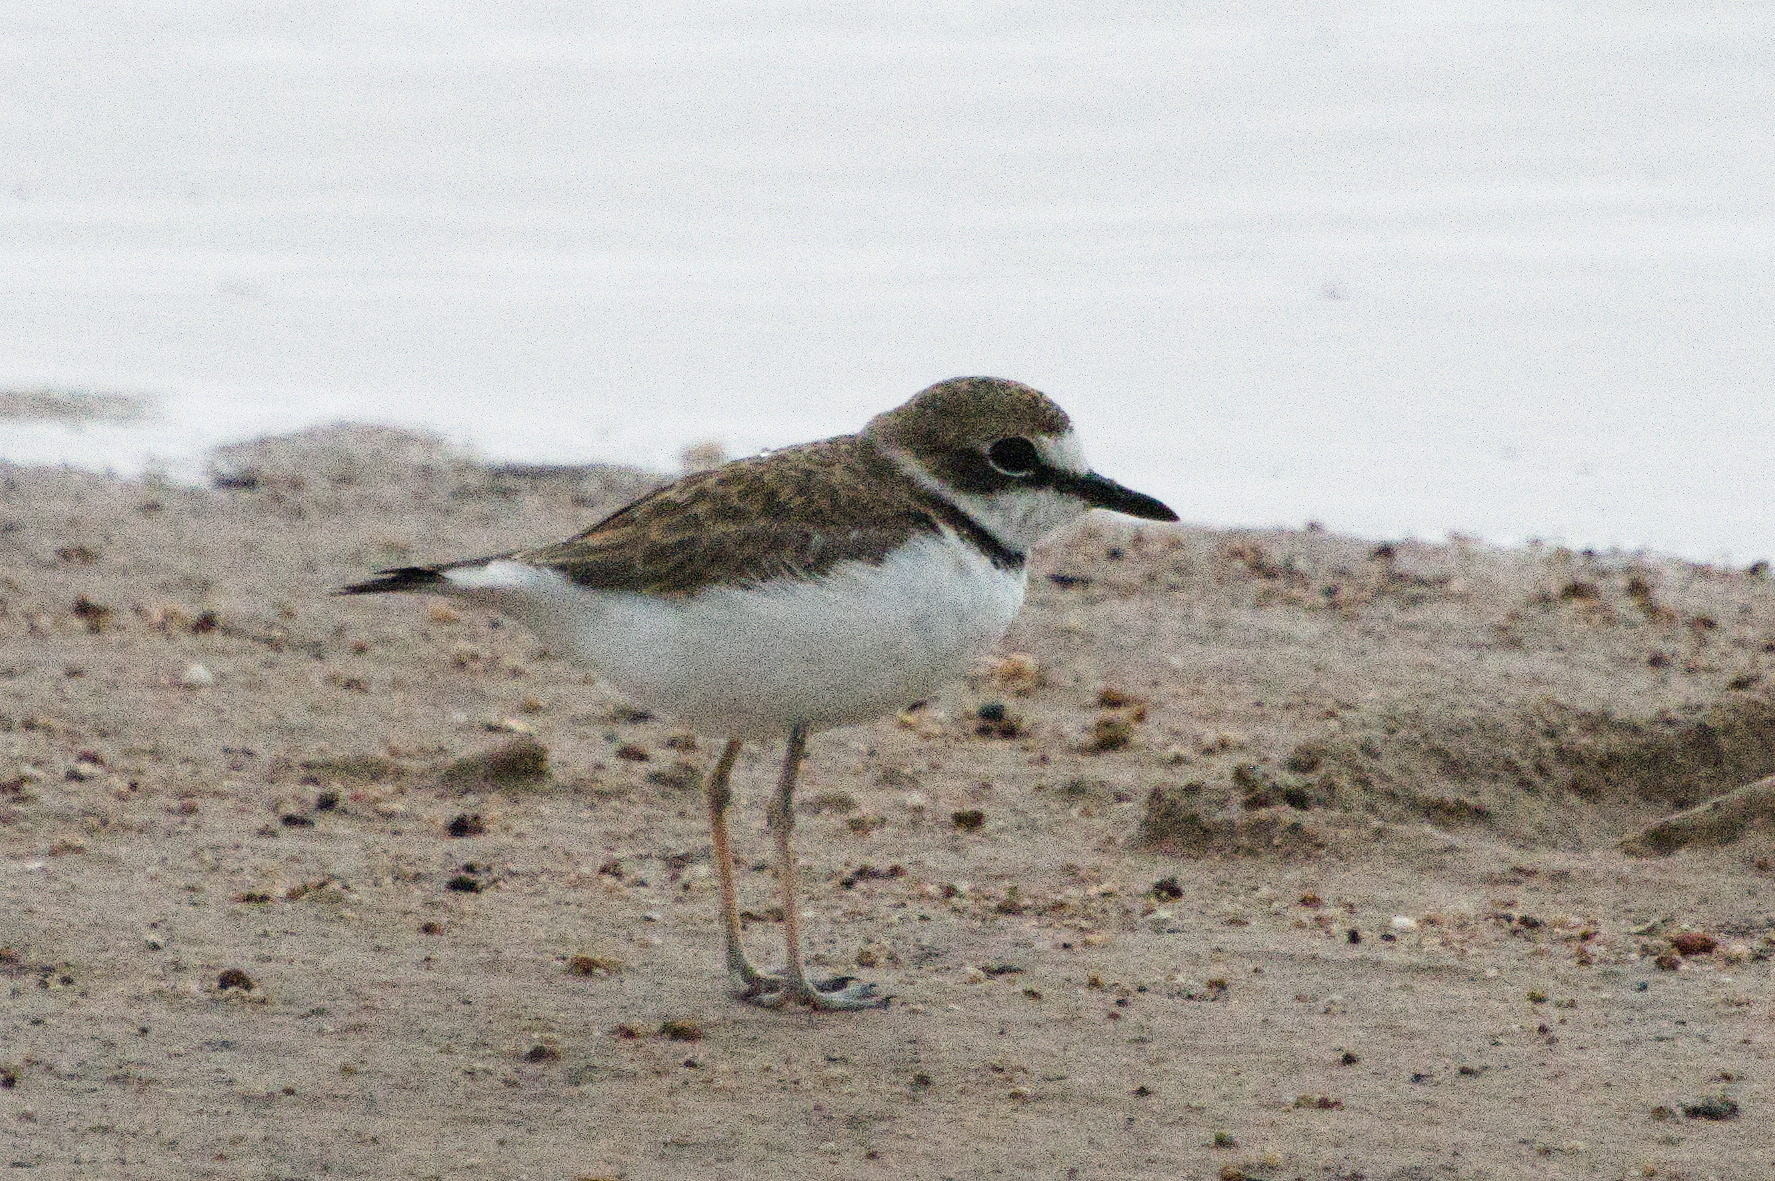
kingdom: Animalia
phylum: Chordata
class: Aves
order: Charadriiformes
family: Charadriidae
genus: Anarhynchus
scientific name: Anarhynchus
